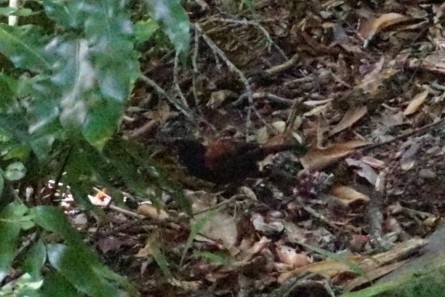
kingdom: Animalia
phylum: Chordata
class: Aves
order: Passeriformes
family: Callaeatidae
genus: Philesturnus
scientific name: Philesturnus carunculatus
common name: South island saddleback
